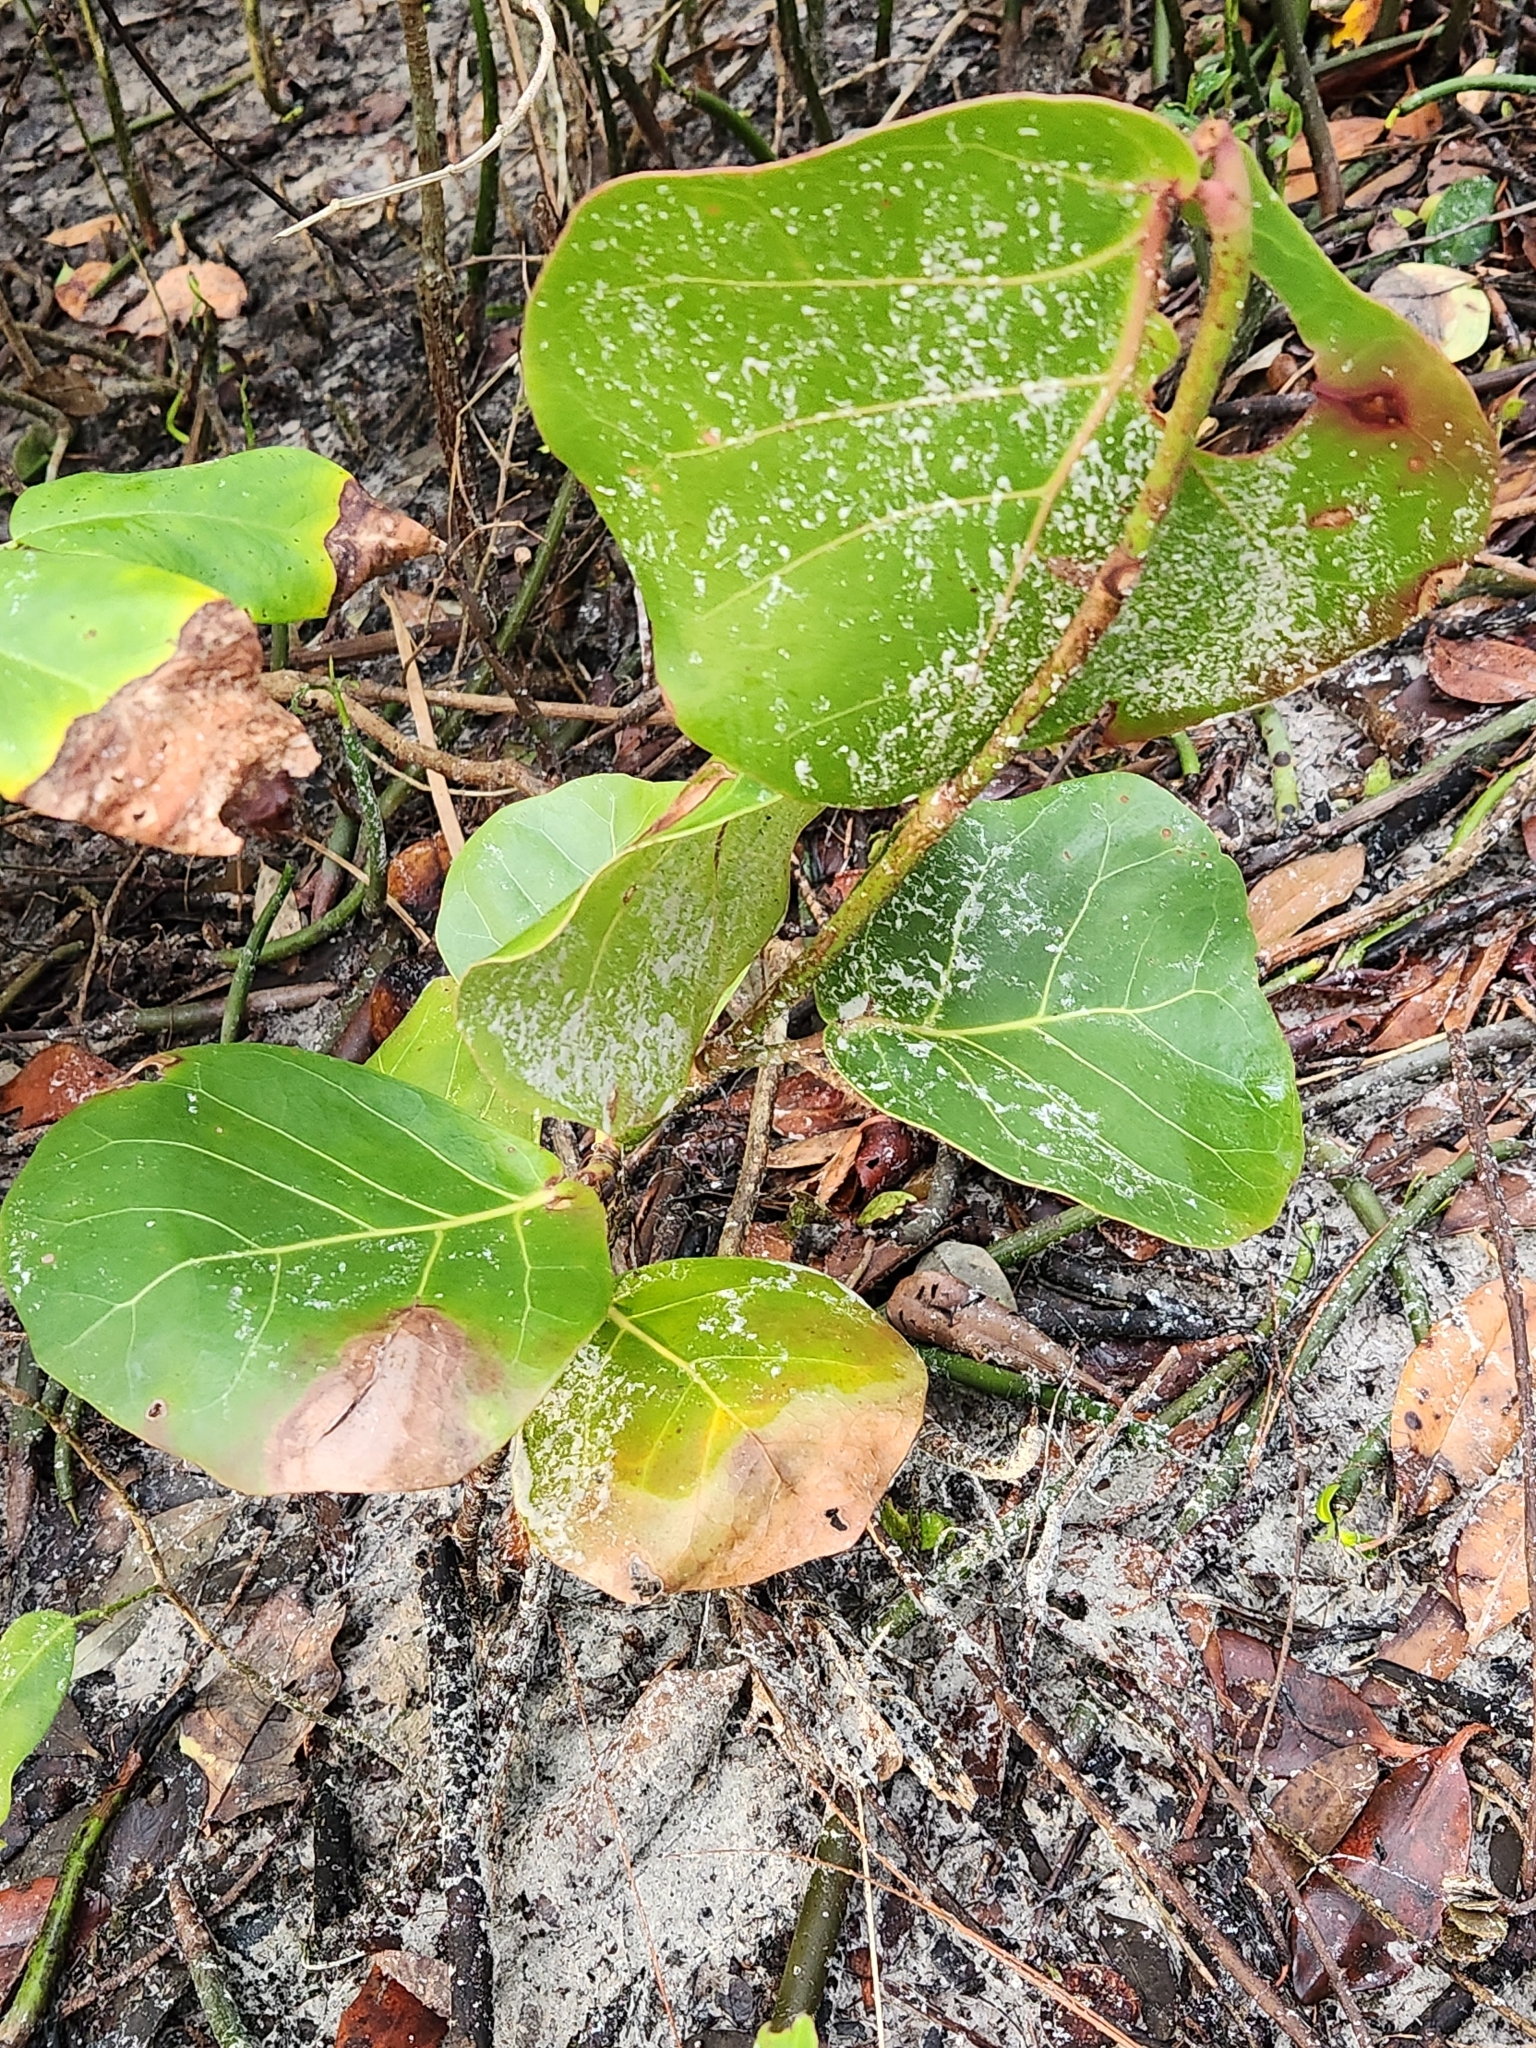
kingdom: Plantae
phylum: Tracheophyta
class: Magnoliopsida
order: Caryophyllales
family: Polygonaceae
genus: Coccoloba
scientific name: Coccoloba uvifera
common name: Seagrape
